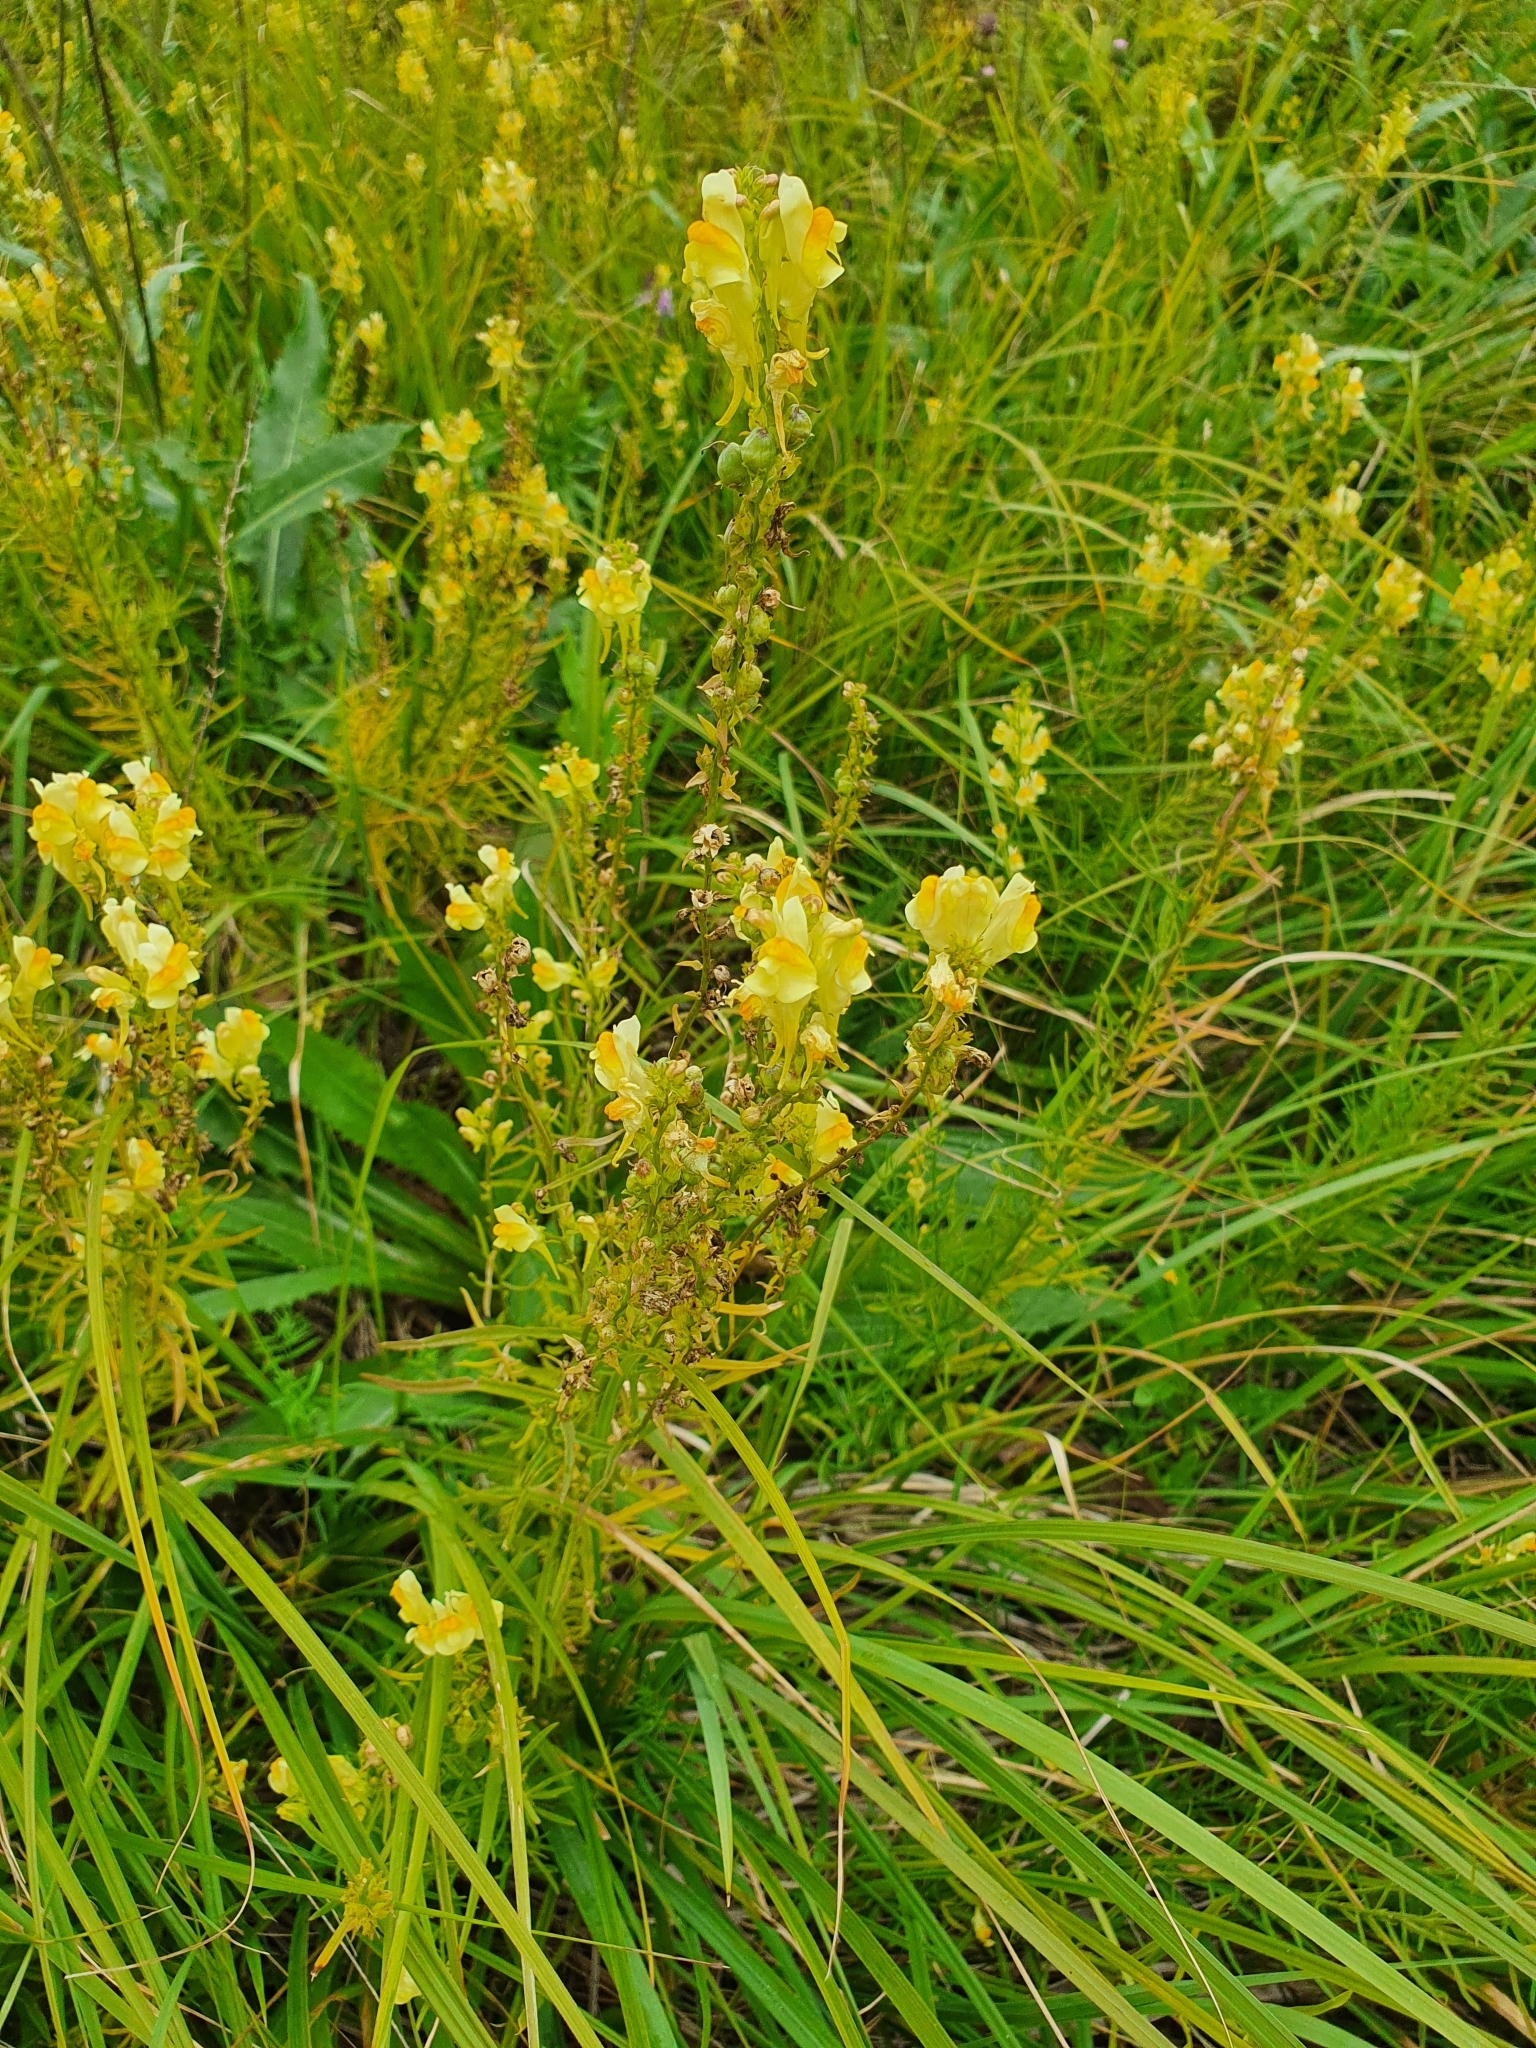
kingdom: Plantae
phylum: Tracheophyta
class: Magnoliopsida
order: Lamiales
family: Plantaginaceae
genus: Linaria
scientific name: Linaria vulgaris
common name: Butter and eggs
